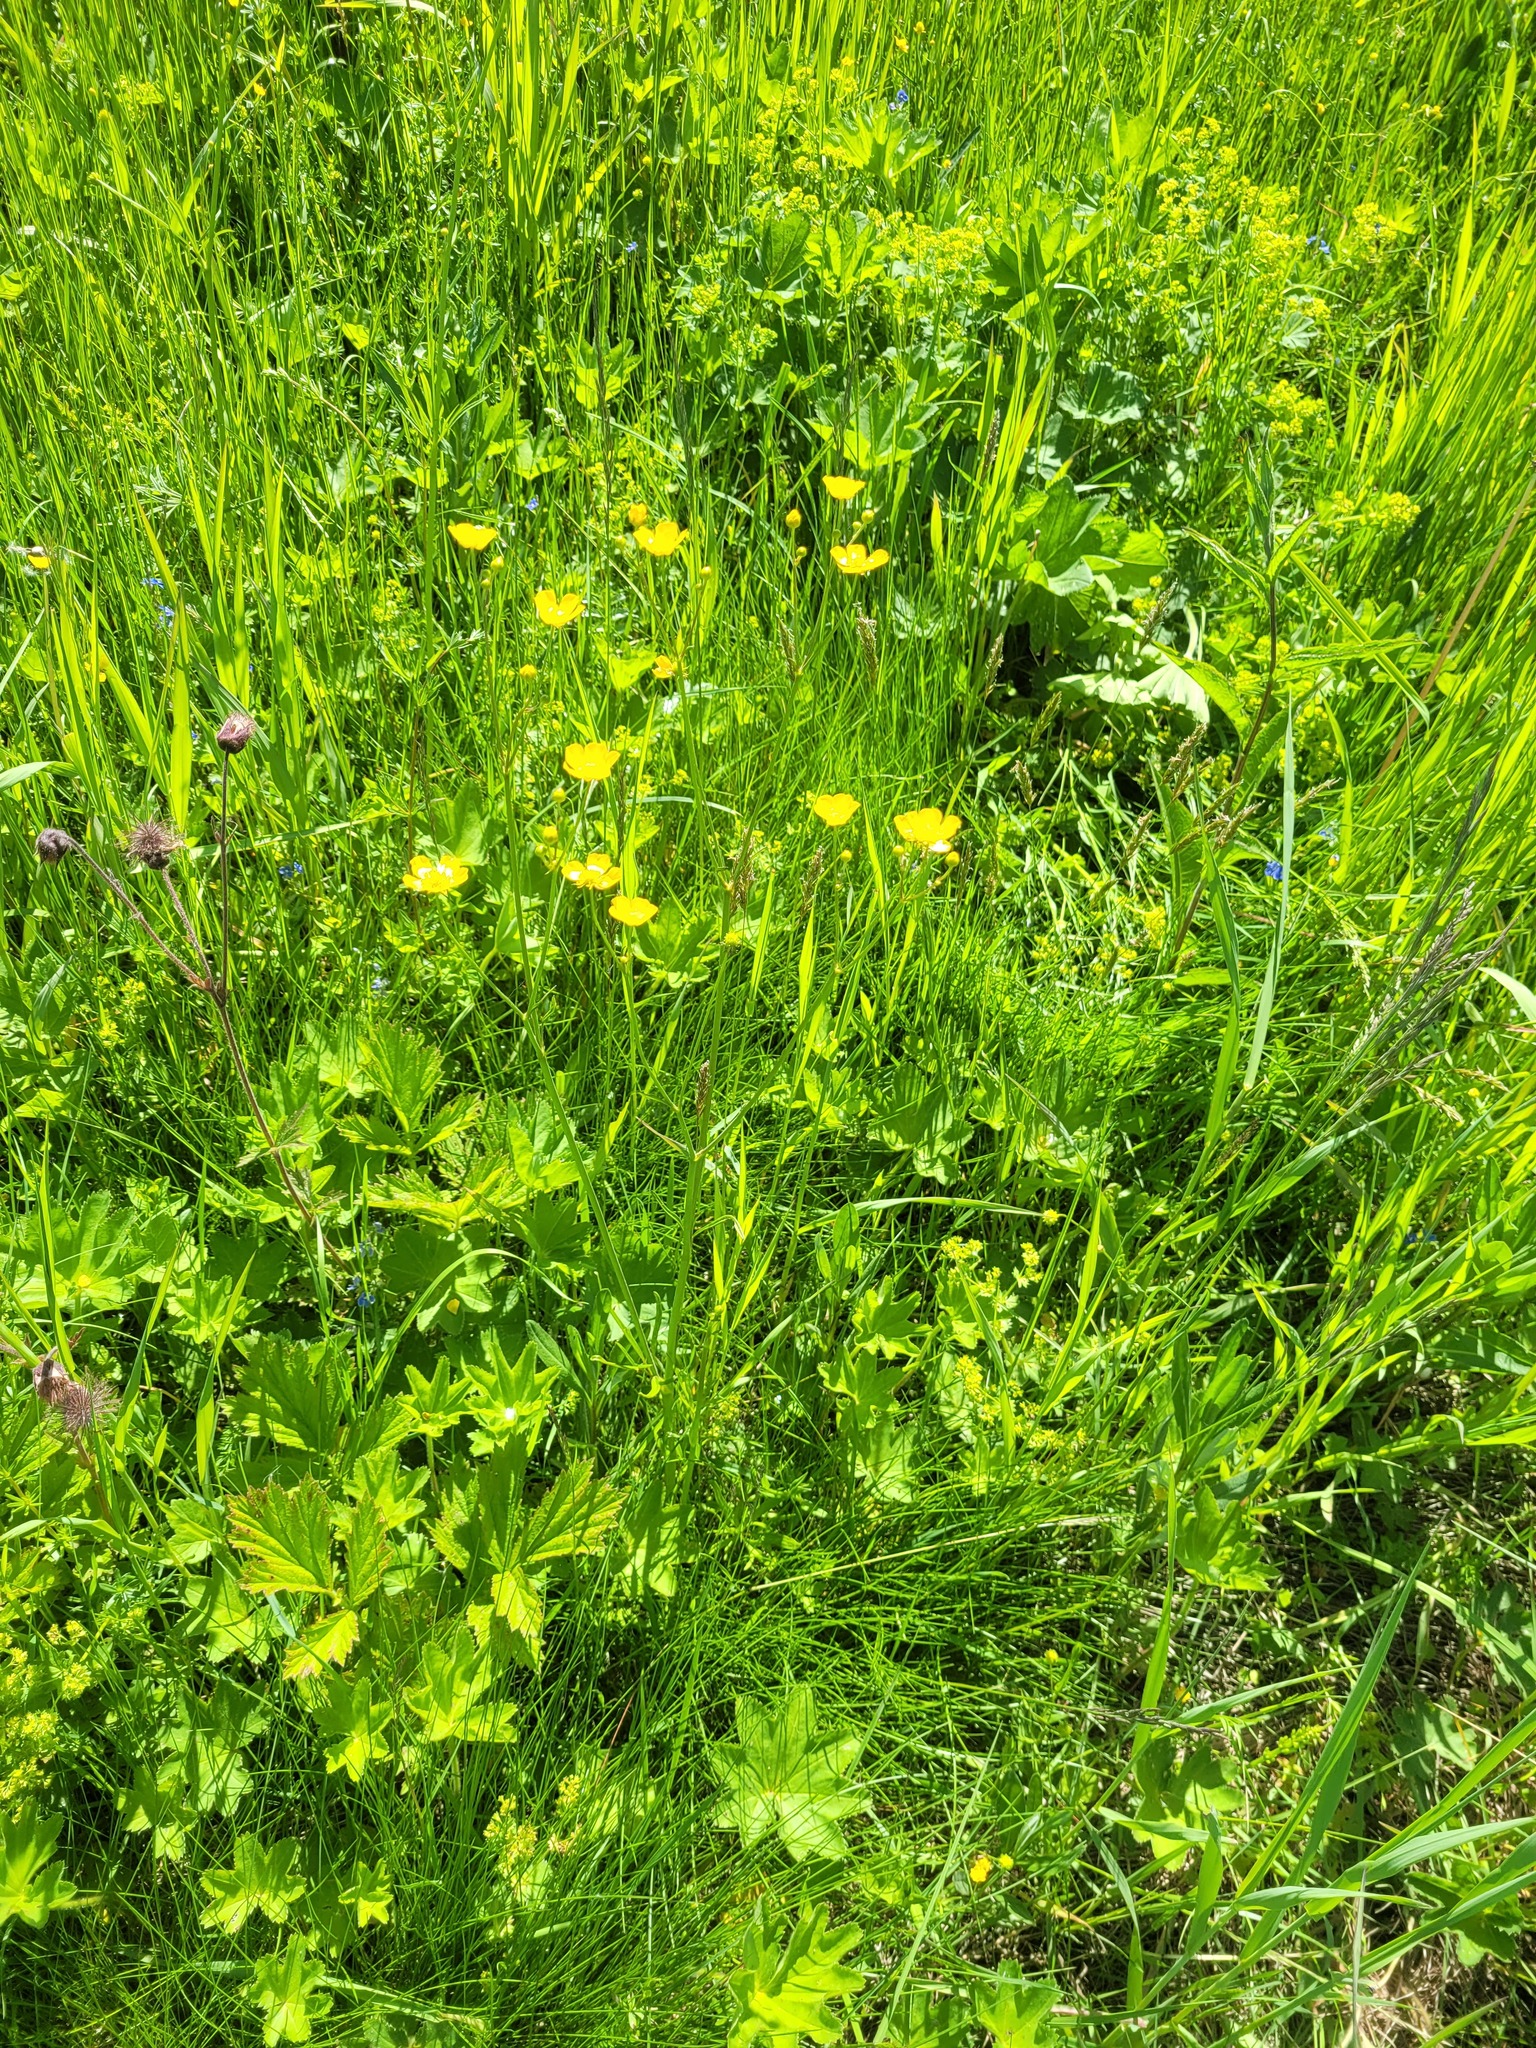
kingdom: Plantae
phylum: Tracheophyta
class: Magnoliopsida
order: Ranunculales
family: Ranunculaceae
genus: Ranunculus
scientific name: Ranunculus acris
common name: Meadow buttercup
